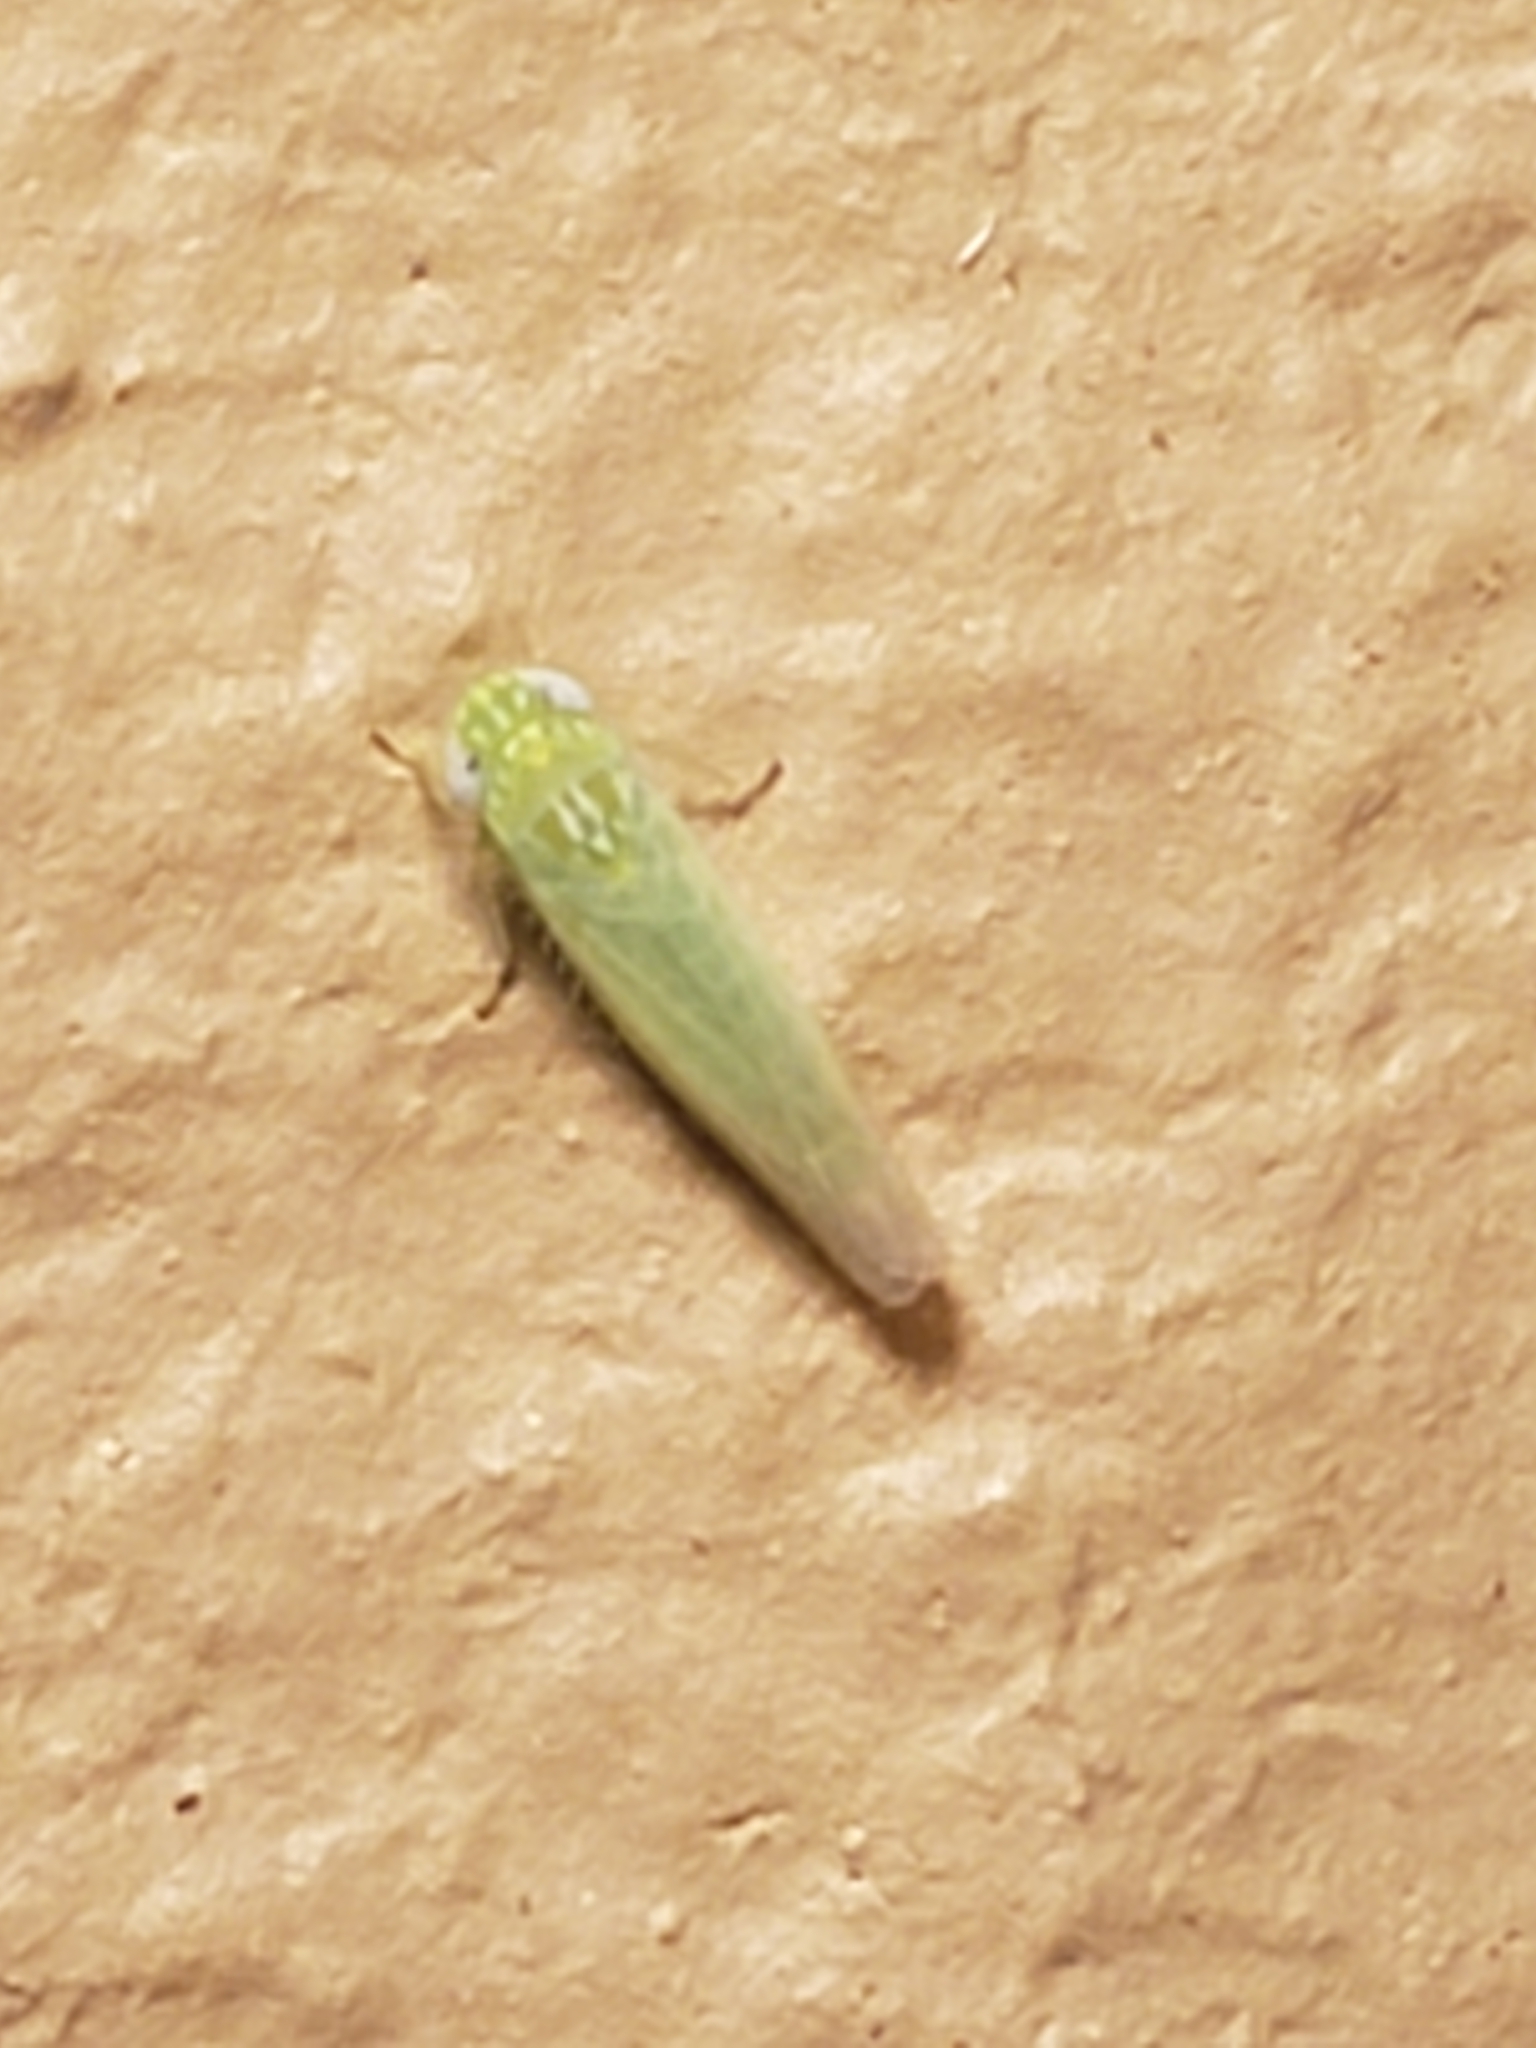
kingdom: Animalia
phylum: Arthropoda
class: Insecta
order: Hemiptera
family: Cicadellidae
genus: Empoasca
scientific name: Empoasca fabae
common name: Potato leafhopper
